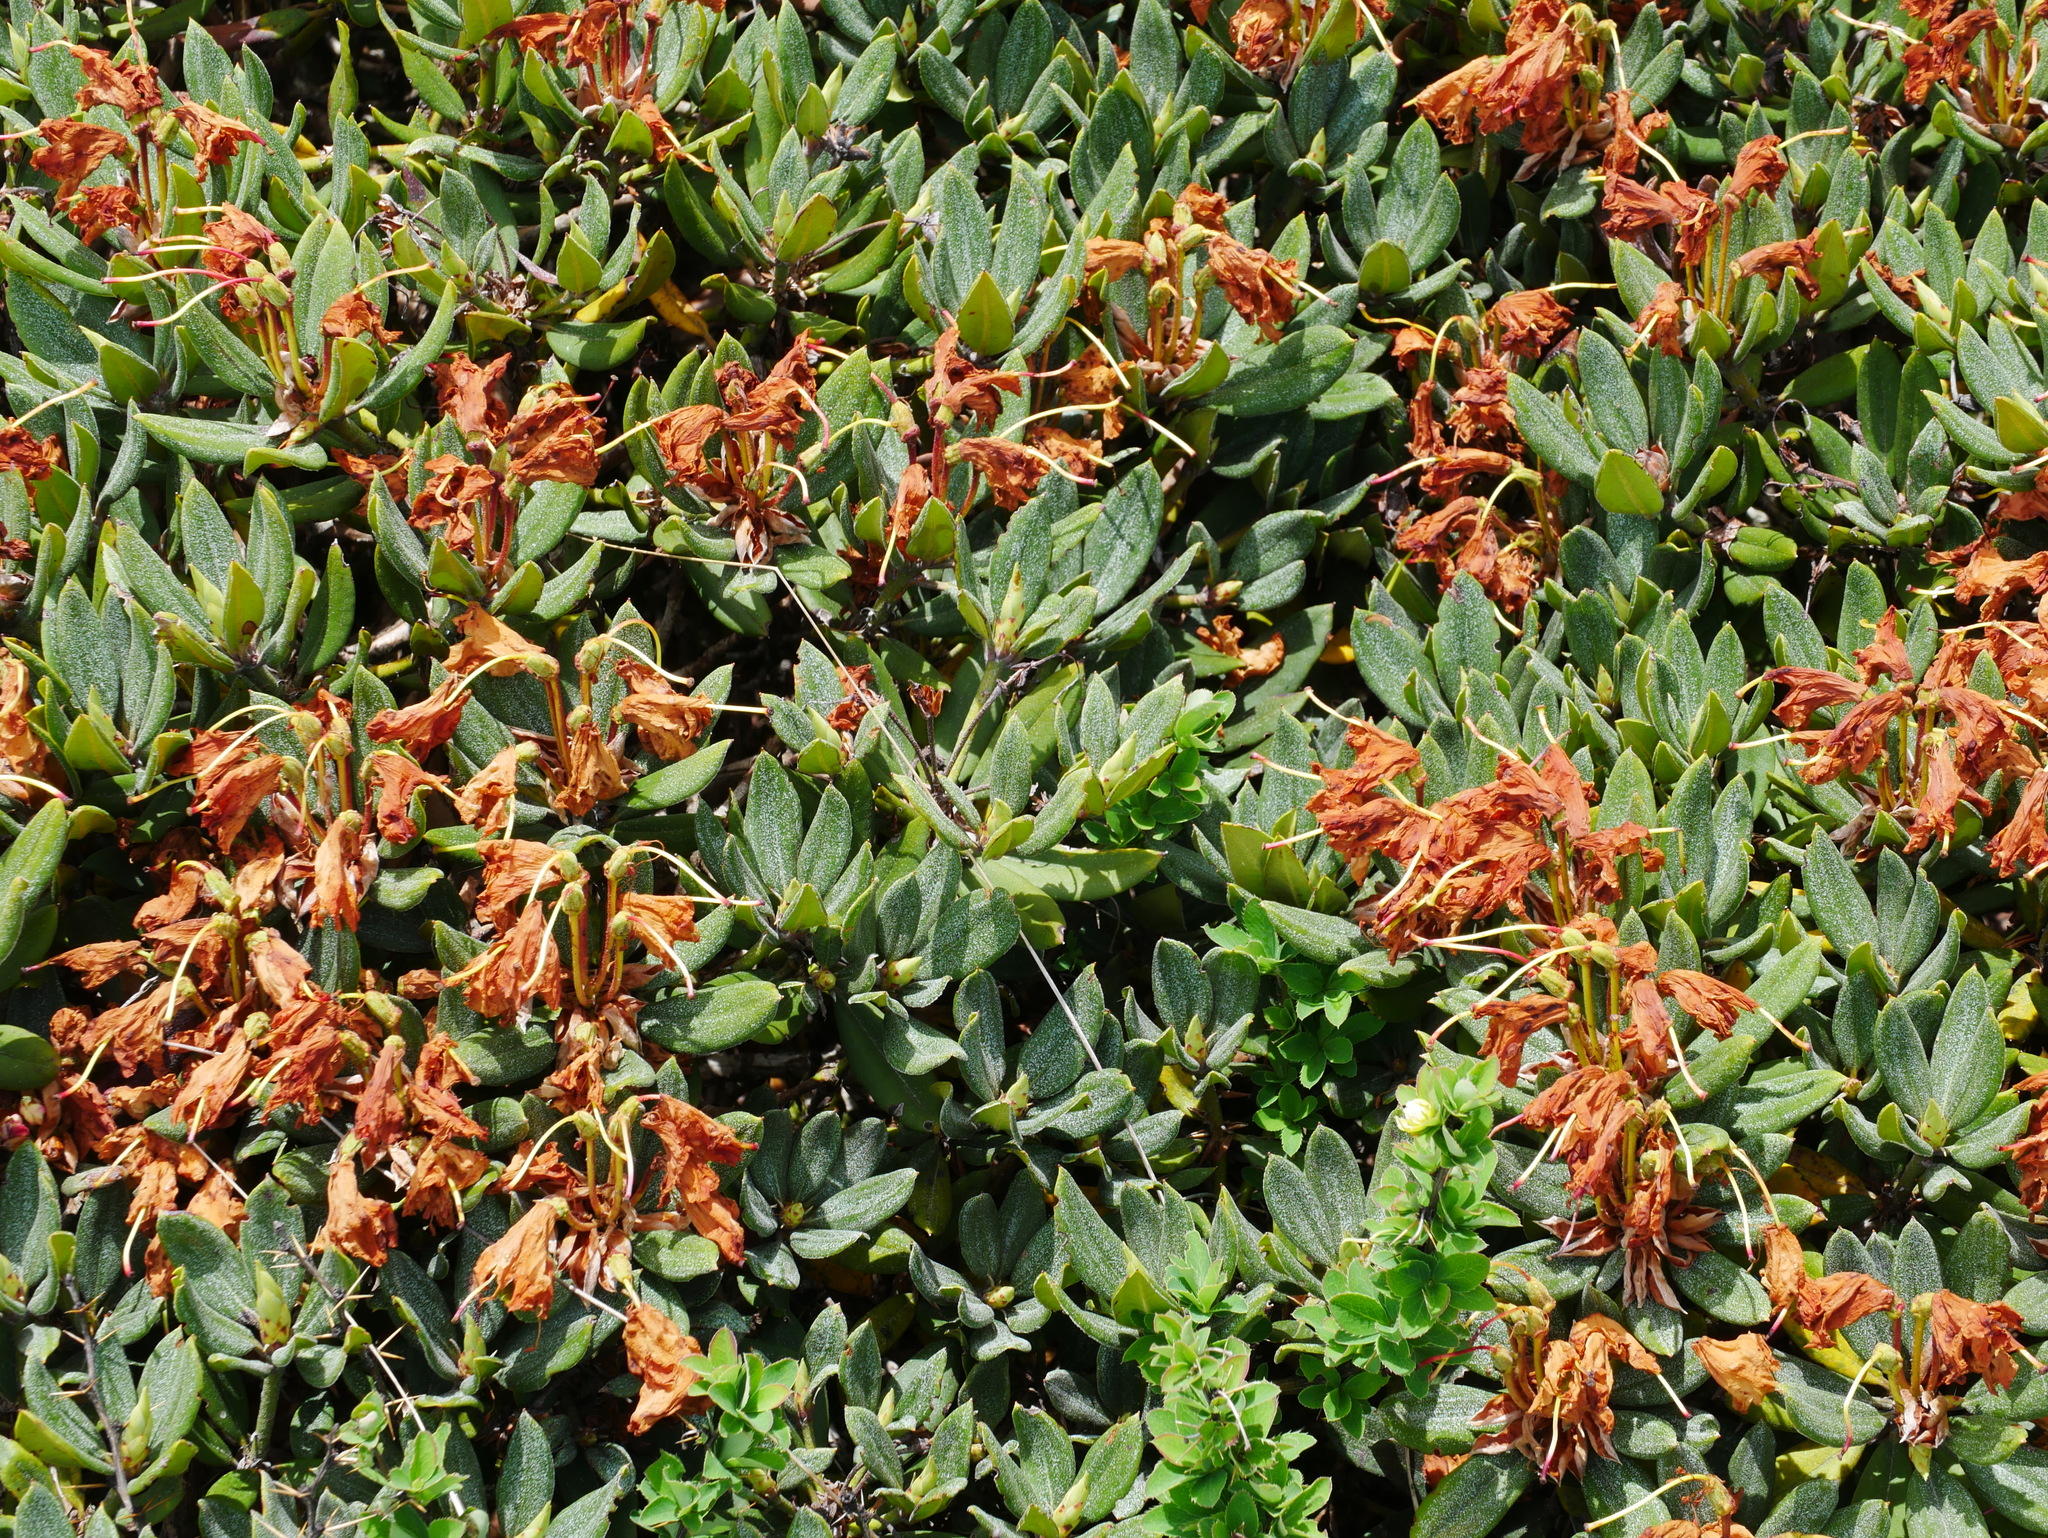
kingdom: Plantae
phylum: Tracheophyta
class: Magnoliopsida
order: Ericales
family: Ericaceae
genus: Rhododendron
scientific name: Rhododendron pseudochrysanthum
